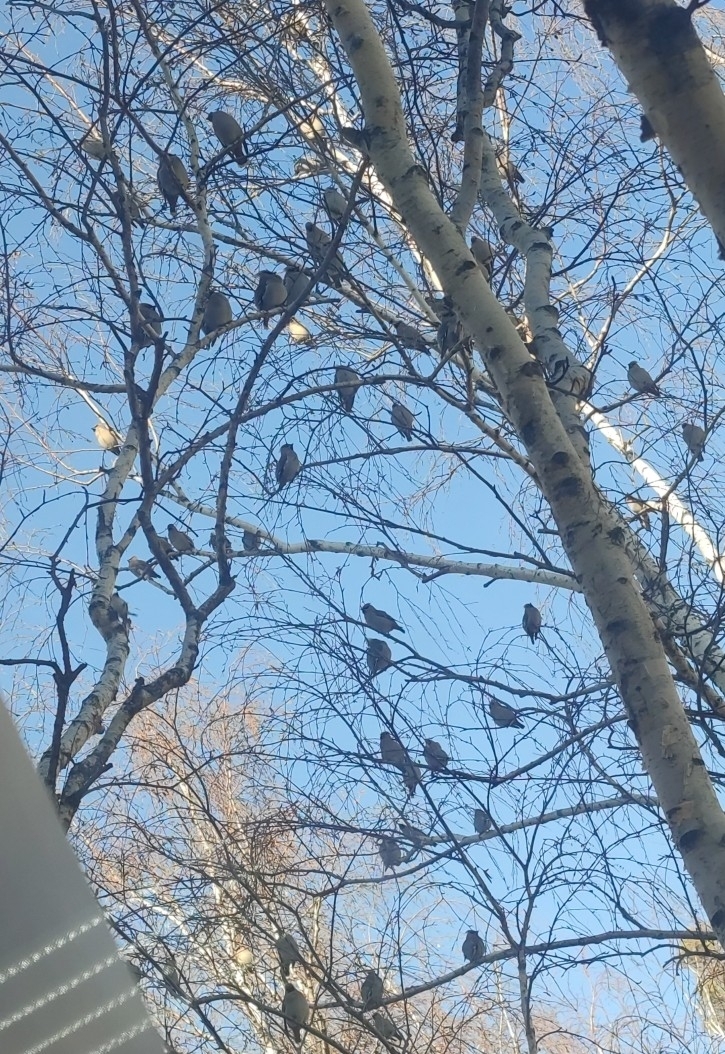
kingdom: Animalia
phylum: Chordata
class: Aves
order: Passeriformes
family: Bombycillidae
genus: Bombycilla
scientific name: Bombycilla garrulus
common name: Bohemian waxwing
